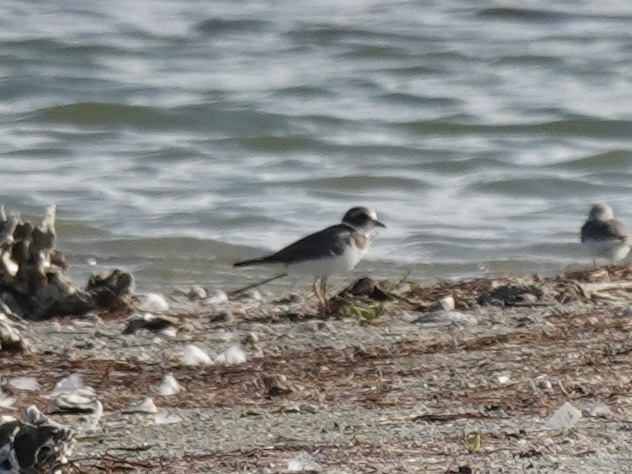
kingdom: Animalia
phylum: Chordata
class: Aves
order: Charadriiformes
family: Charadriidae
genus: Charadrius
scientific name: Charadrius semipalmatus
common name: Semipalmated plover
